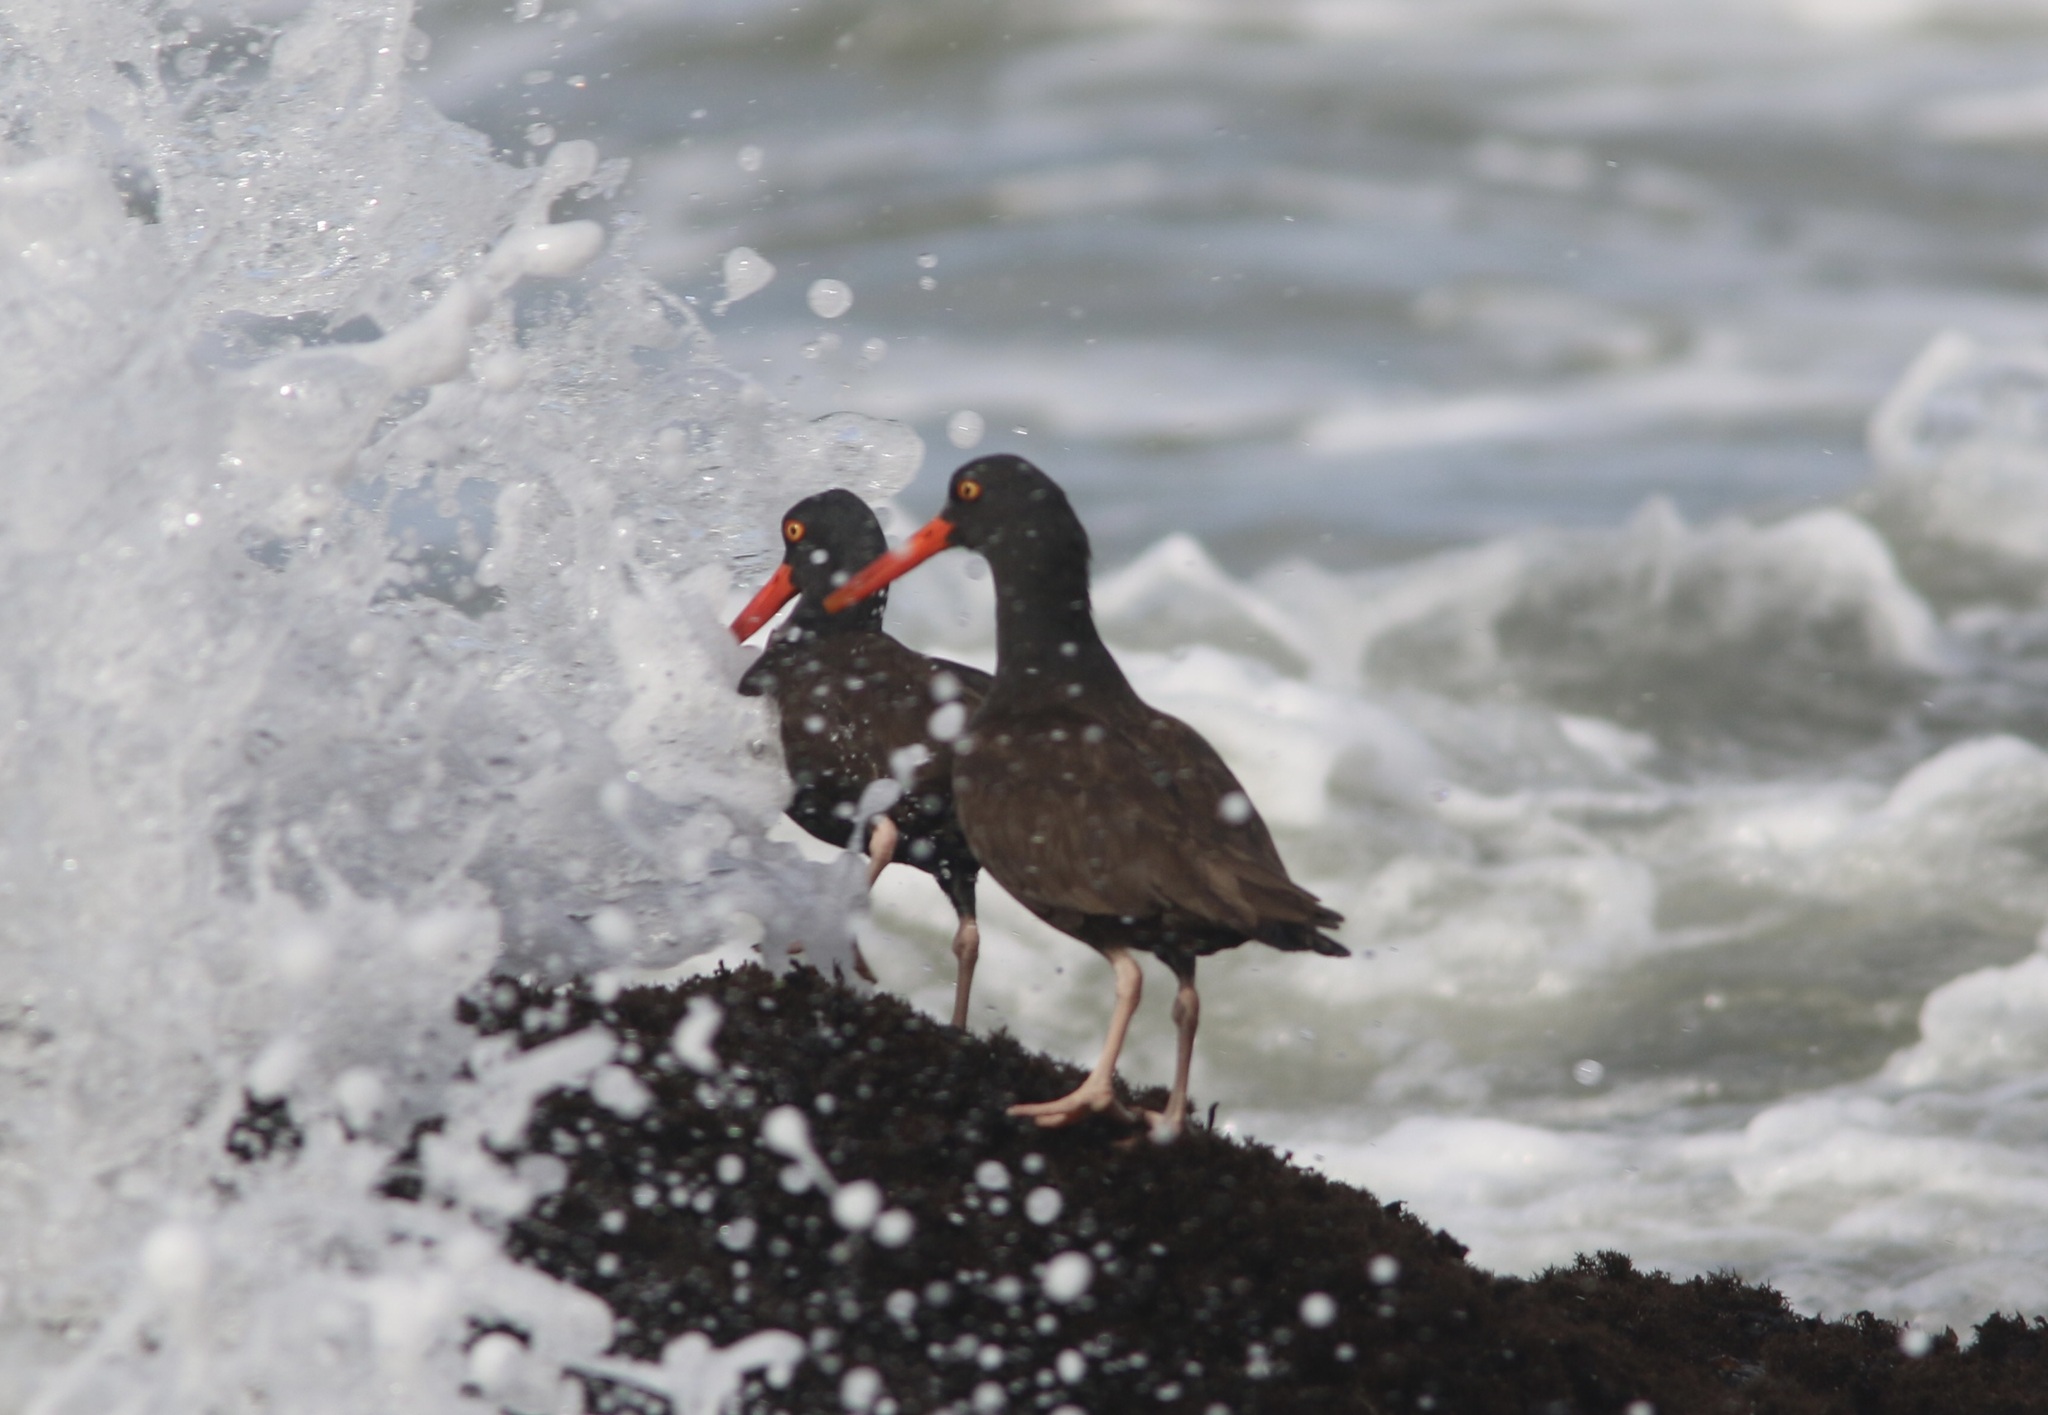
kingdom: Animalia
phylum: Chordata
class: Aves
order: Charadriiformes
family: Haematopodidae
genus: Haematopus
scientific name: Haematopus bachmani
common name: Black oystercatcher
